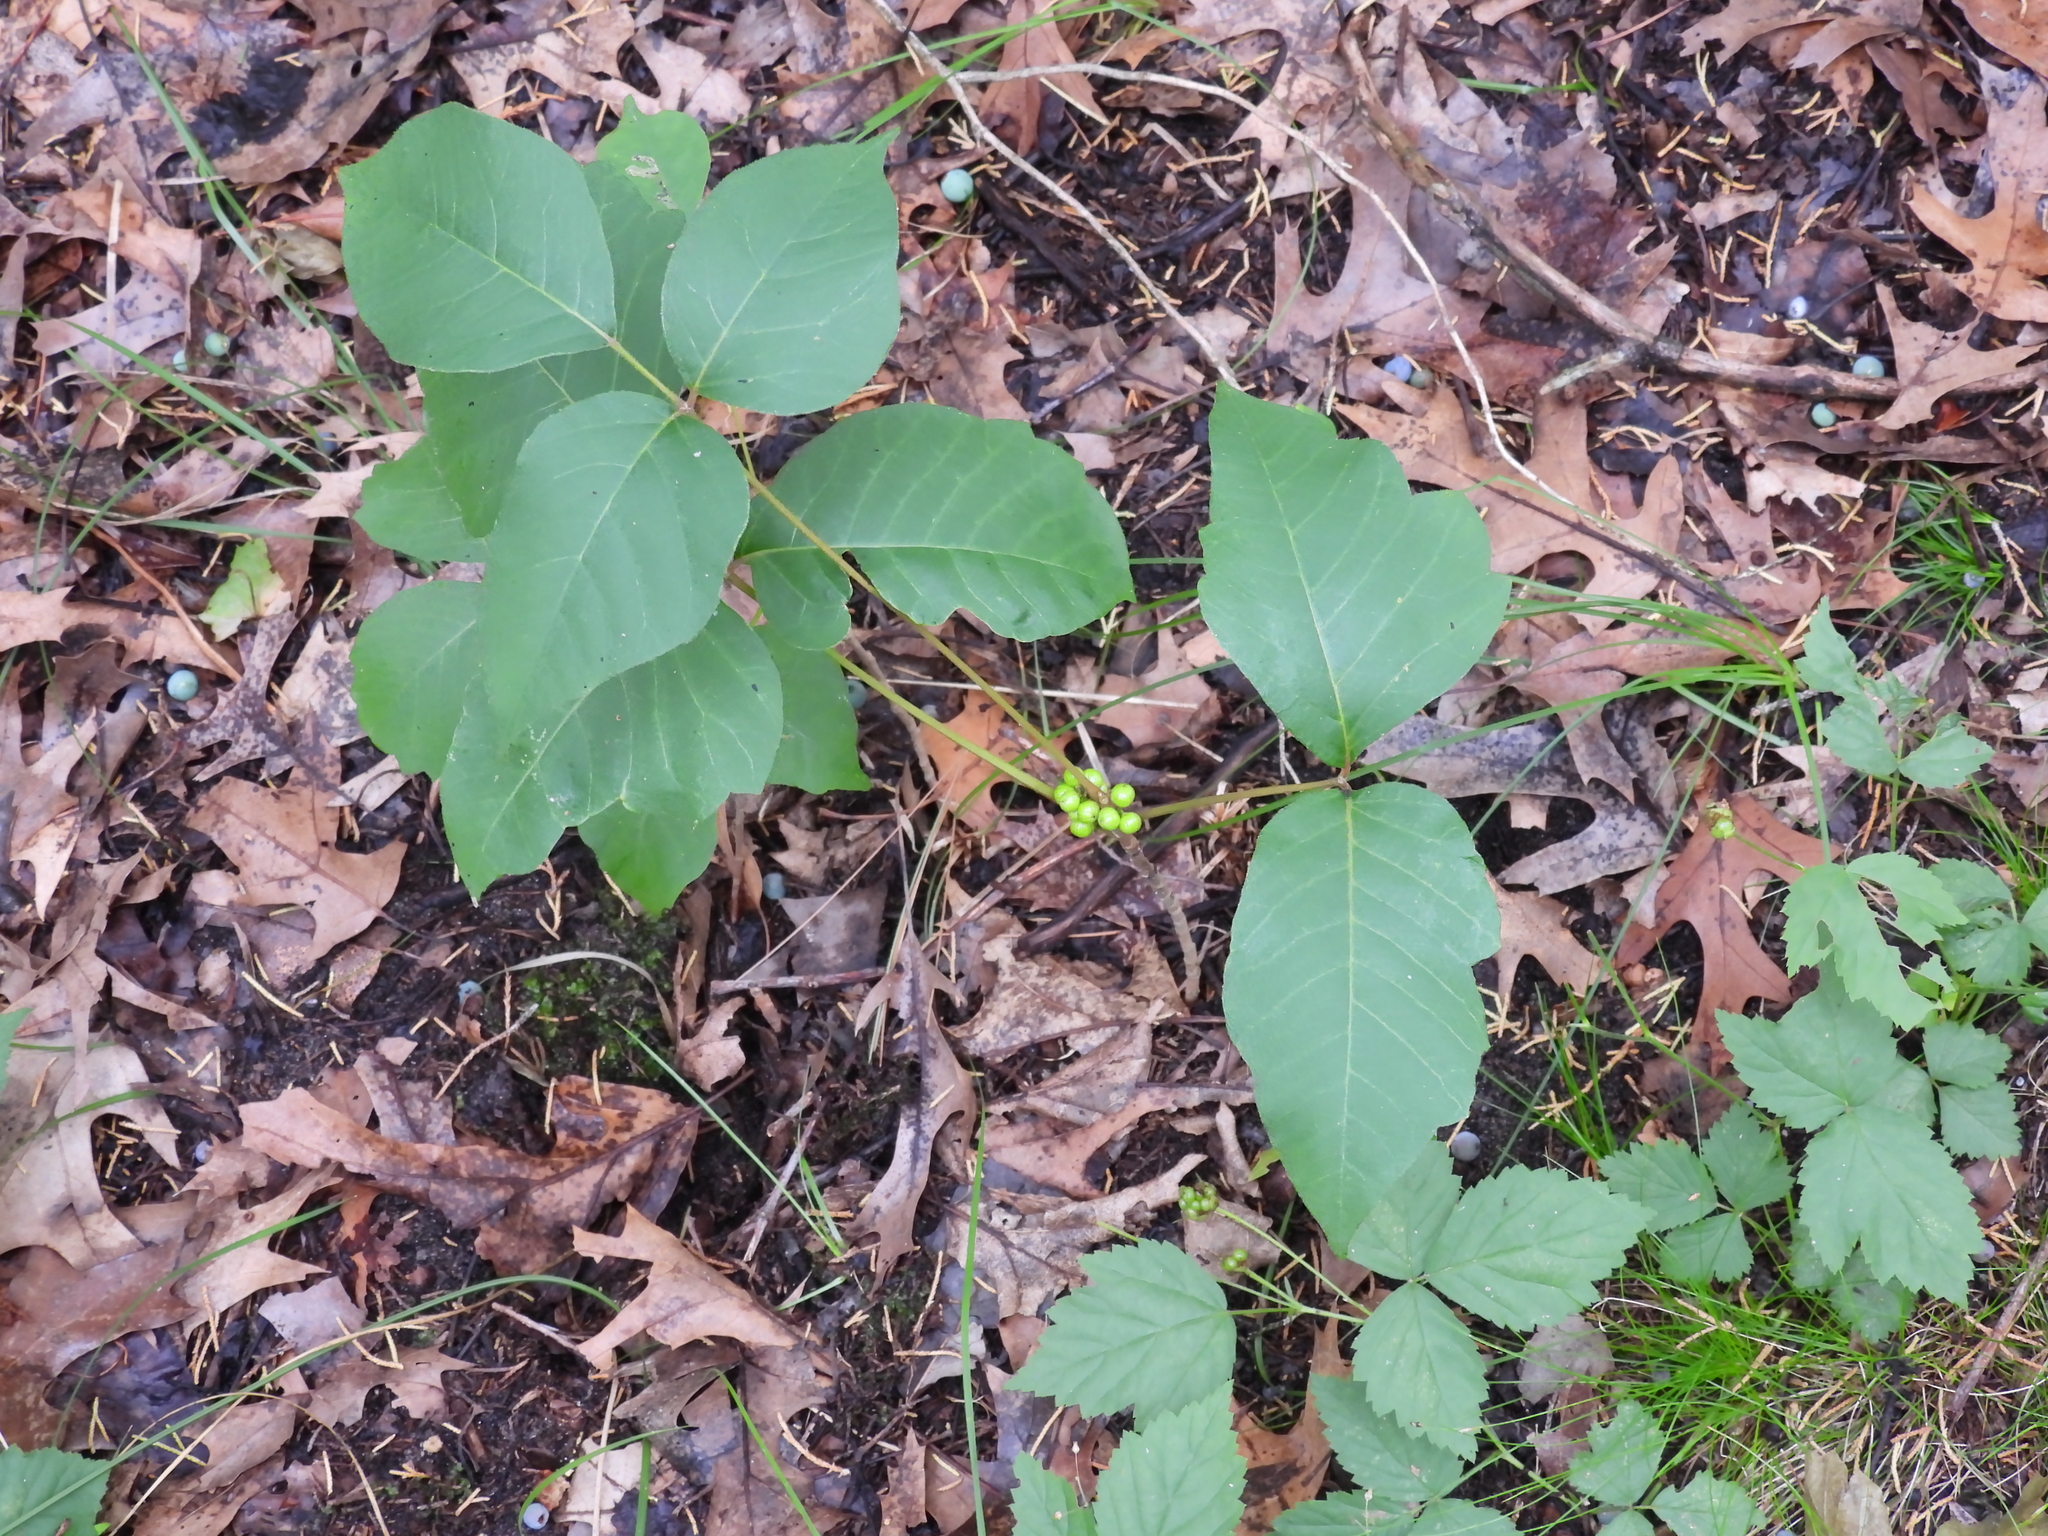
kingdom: Plantae
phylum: Tracheophyta
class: Magnoliopsida
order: Sapindales
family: Anacardiaceae
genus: Toxicodendron
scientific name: Toxicodendron rydbergii
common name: Rydberg's poison-ivy
